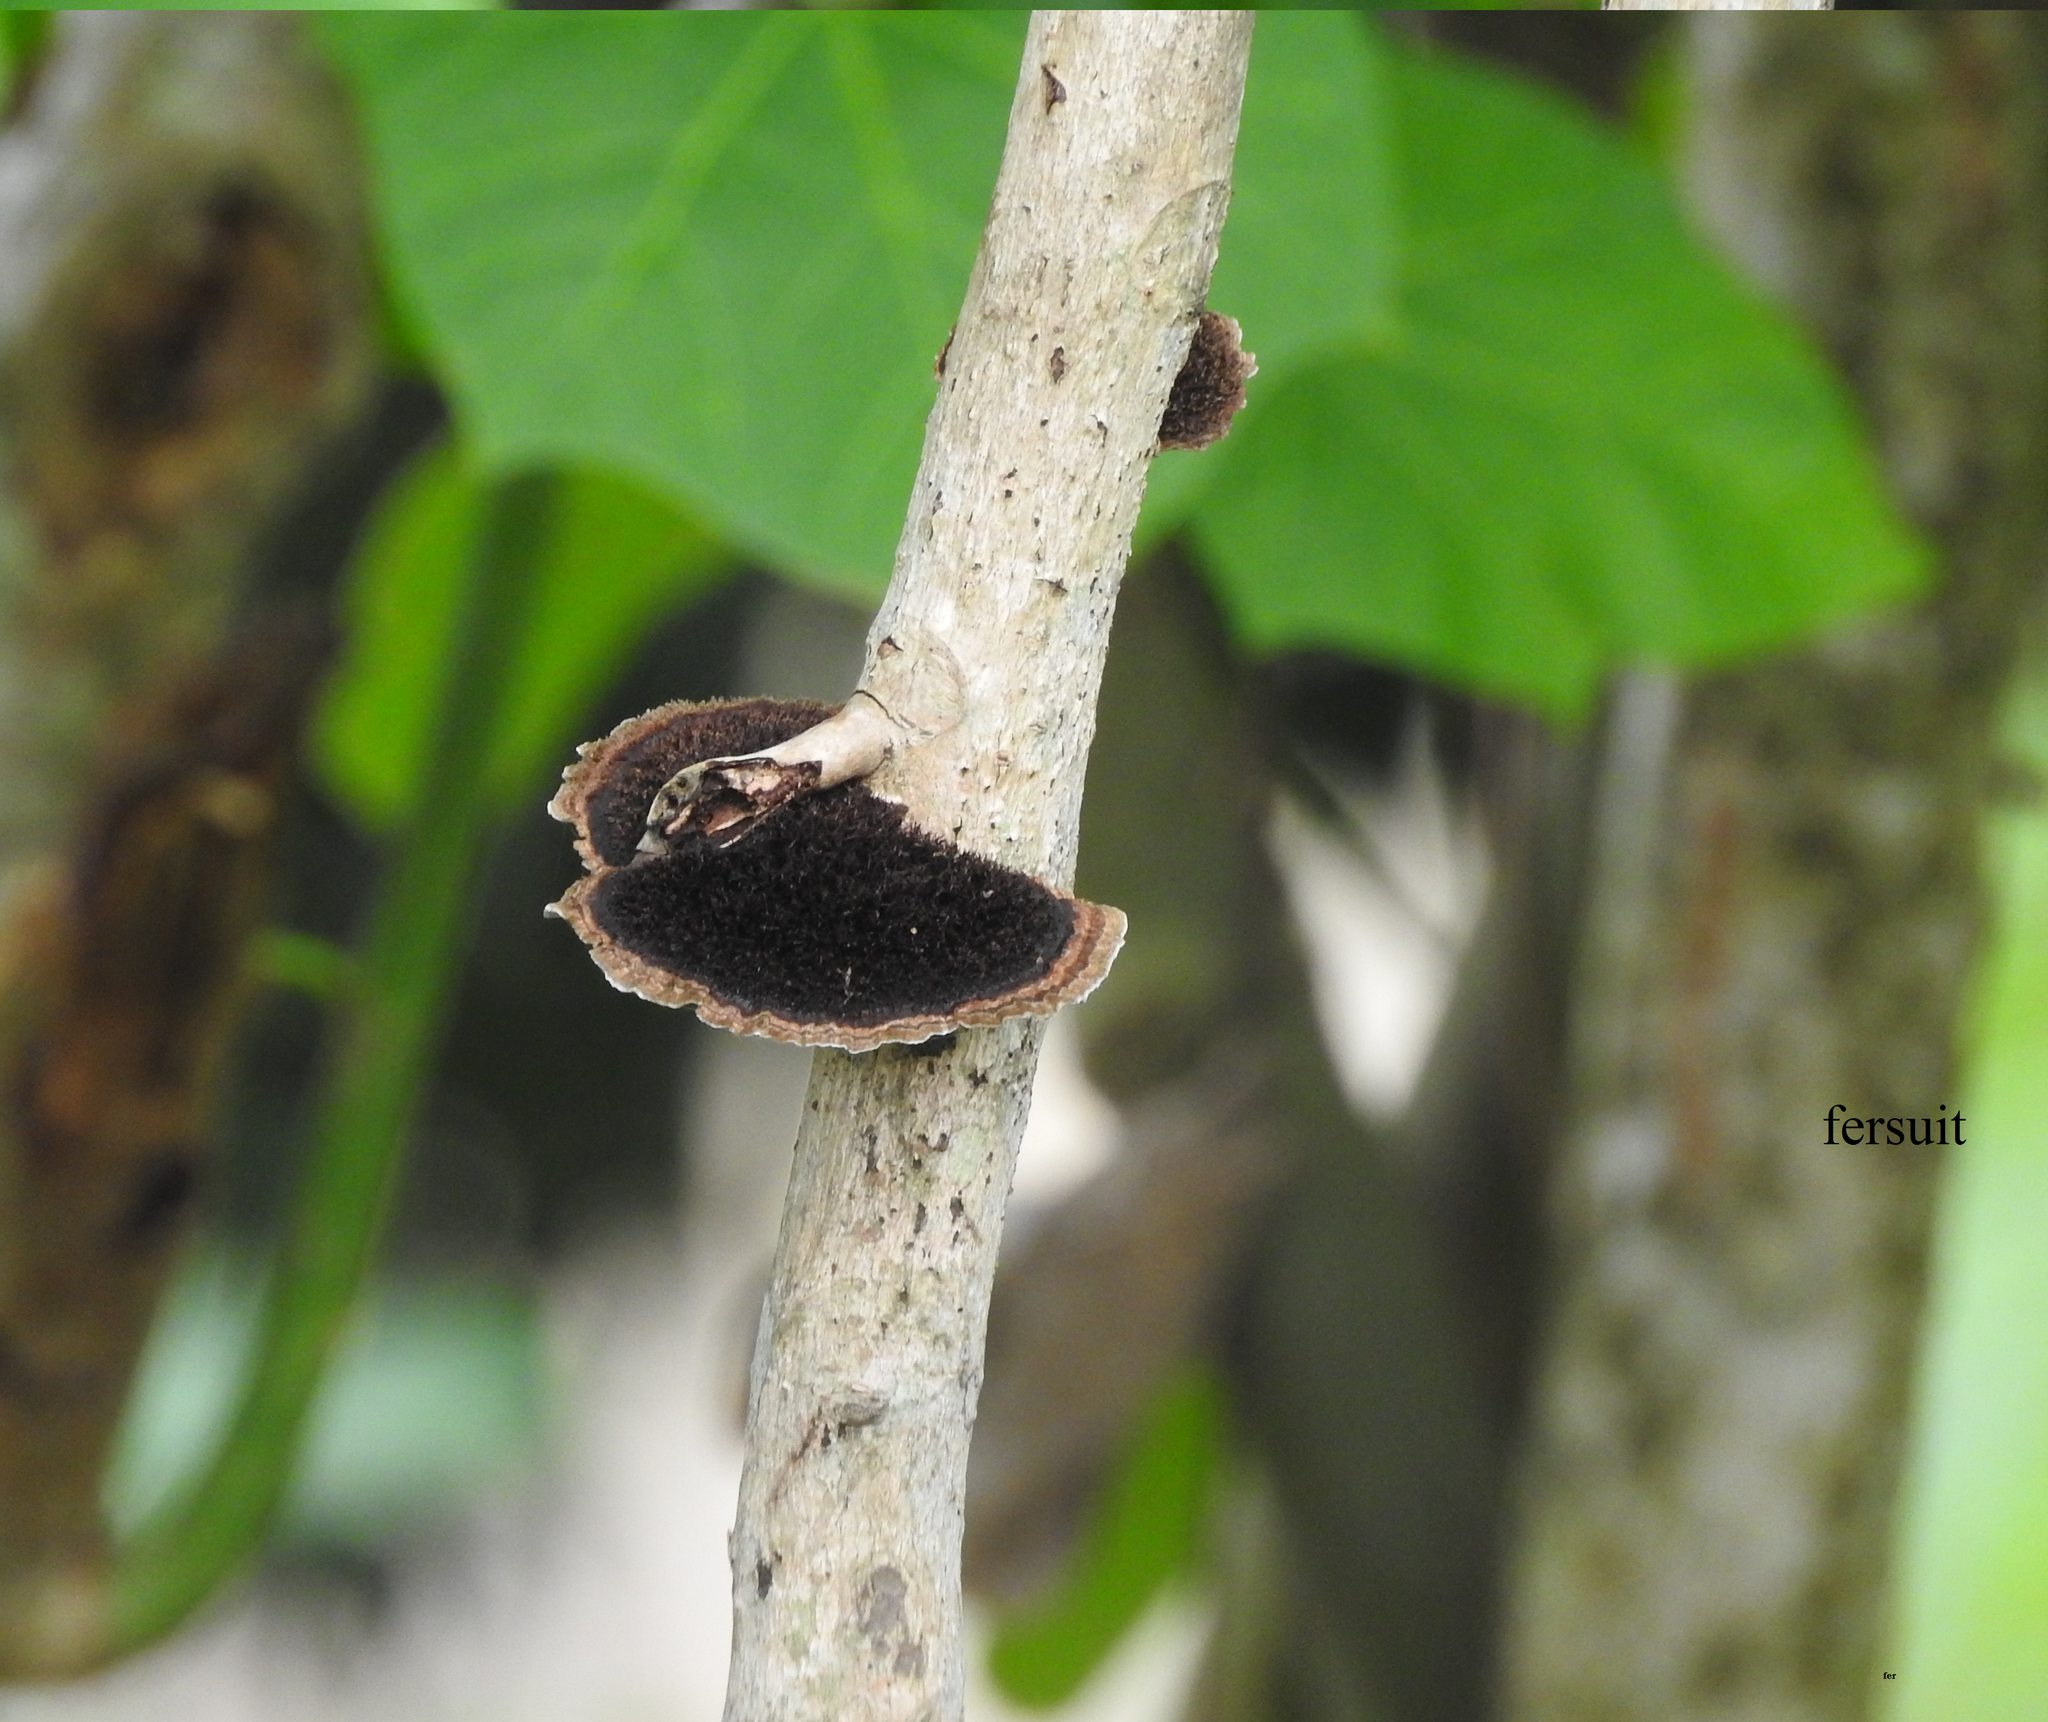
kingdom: Fungi
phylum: Basidiomycota
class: Agaricomycetes
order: Polyporales
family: Cerrenaceae
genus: Cerrena
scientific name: Cerrena hydnoides
